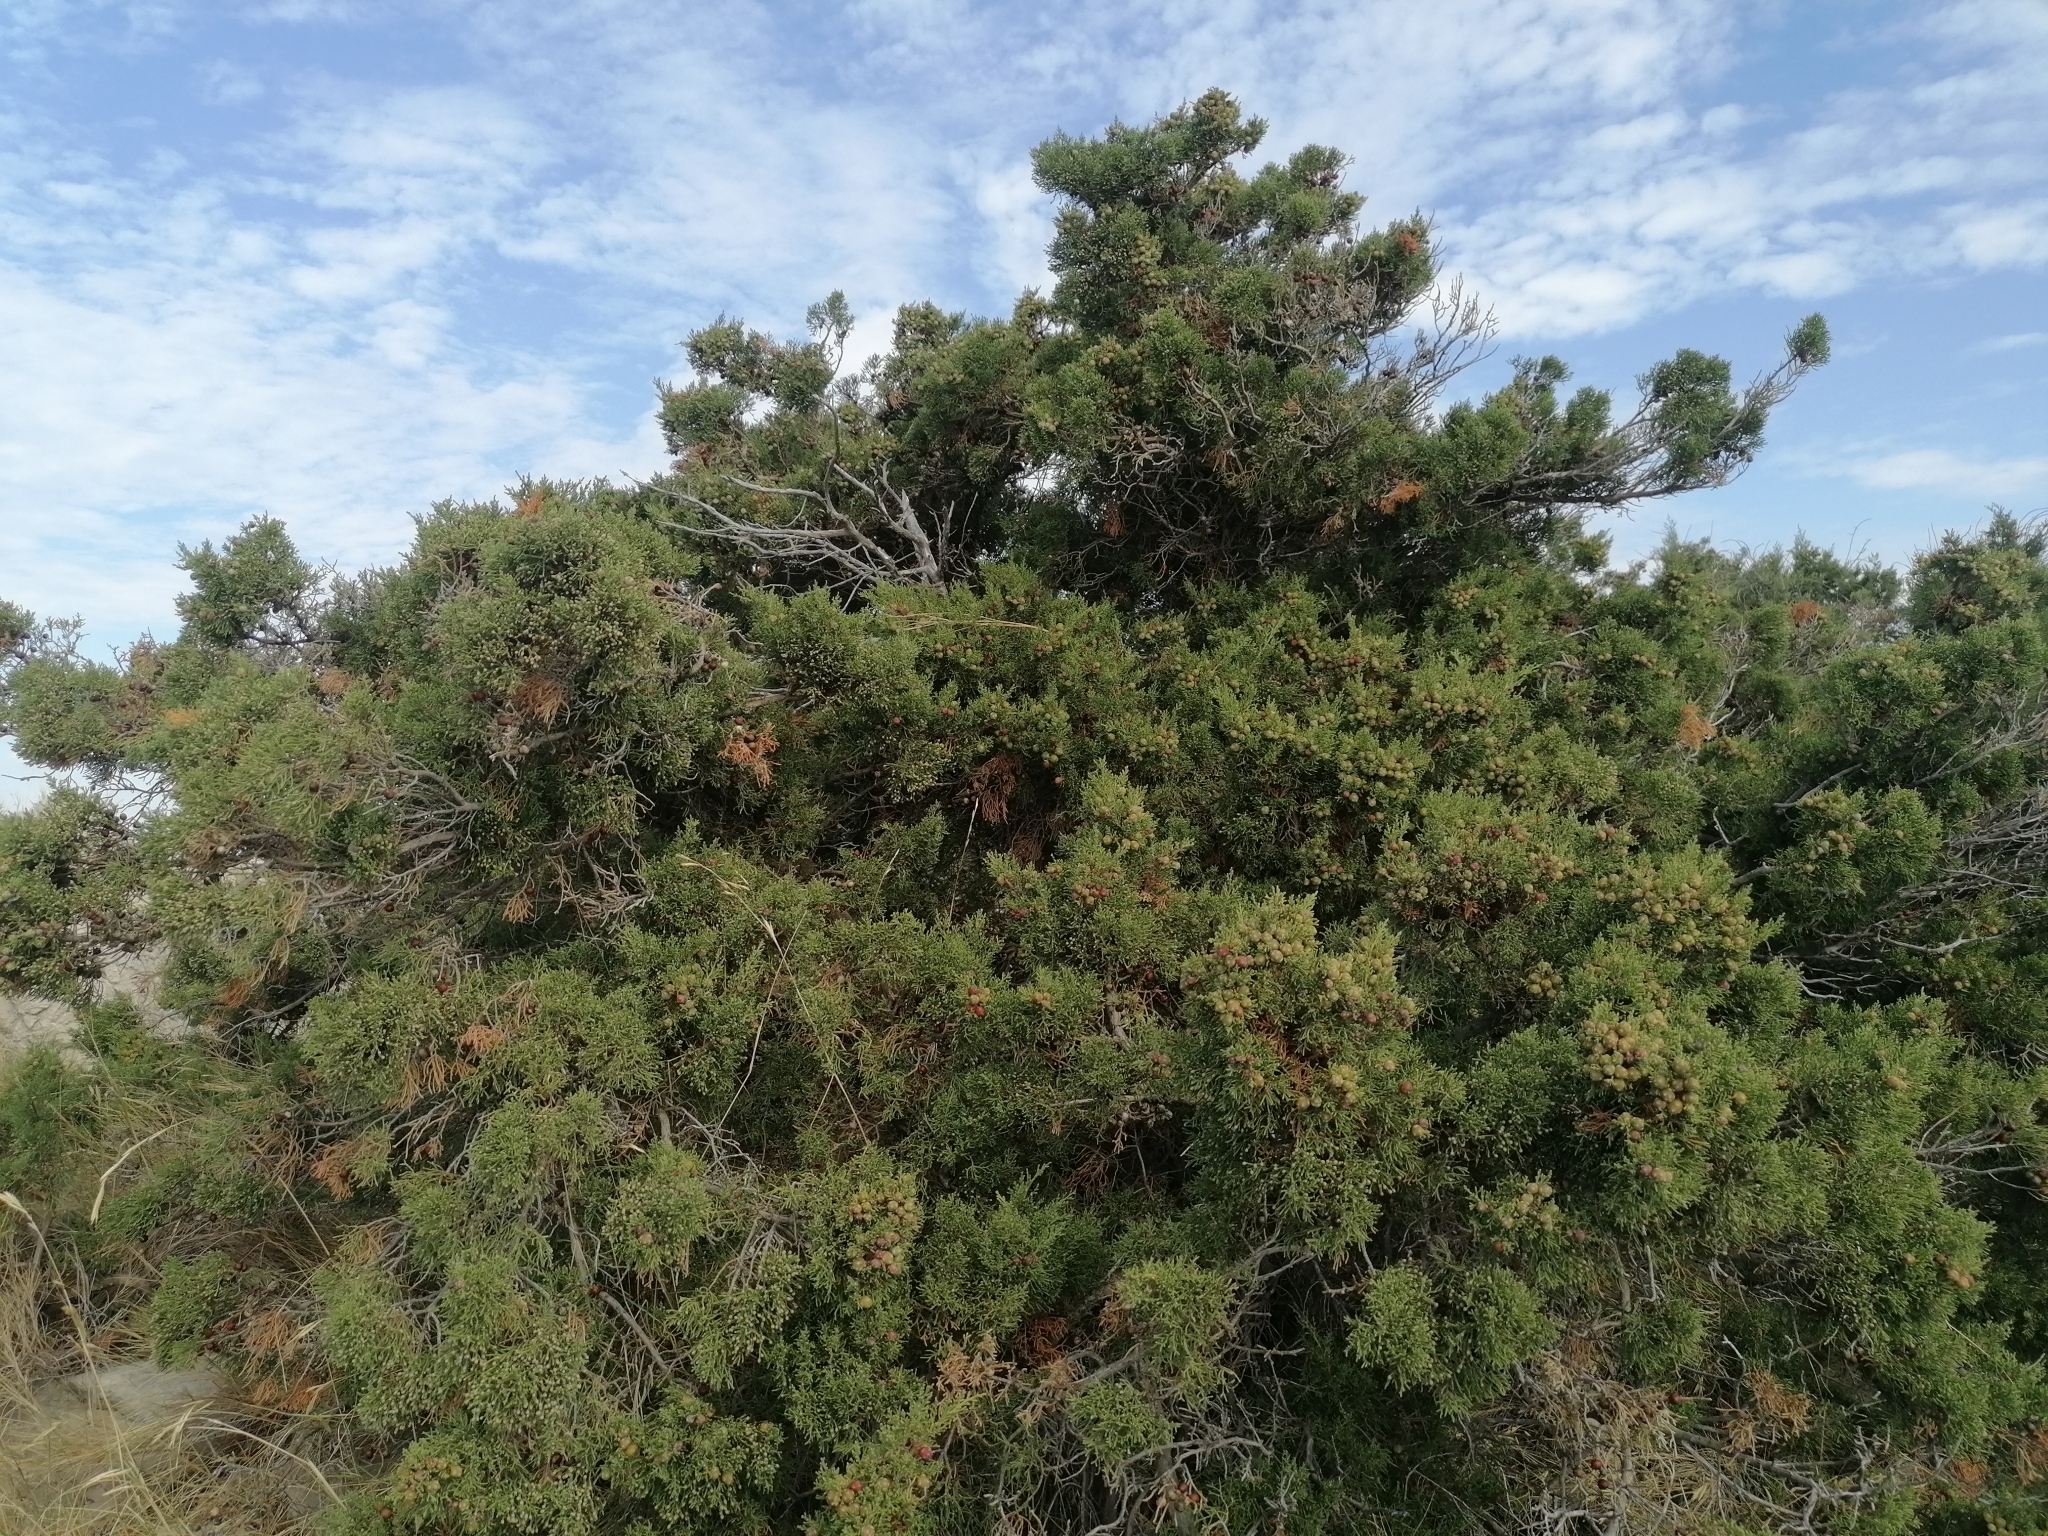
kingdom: Plantae
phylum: Tracheophyta
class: Pinopsida
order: Pinales
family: Cupressaceae
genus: Juniperus
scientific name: Juniperus phoenicea
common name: Phoenician juniper
